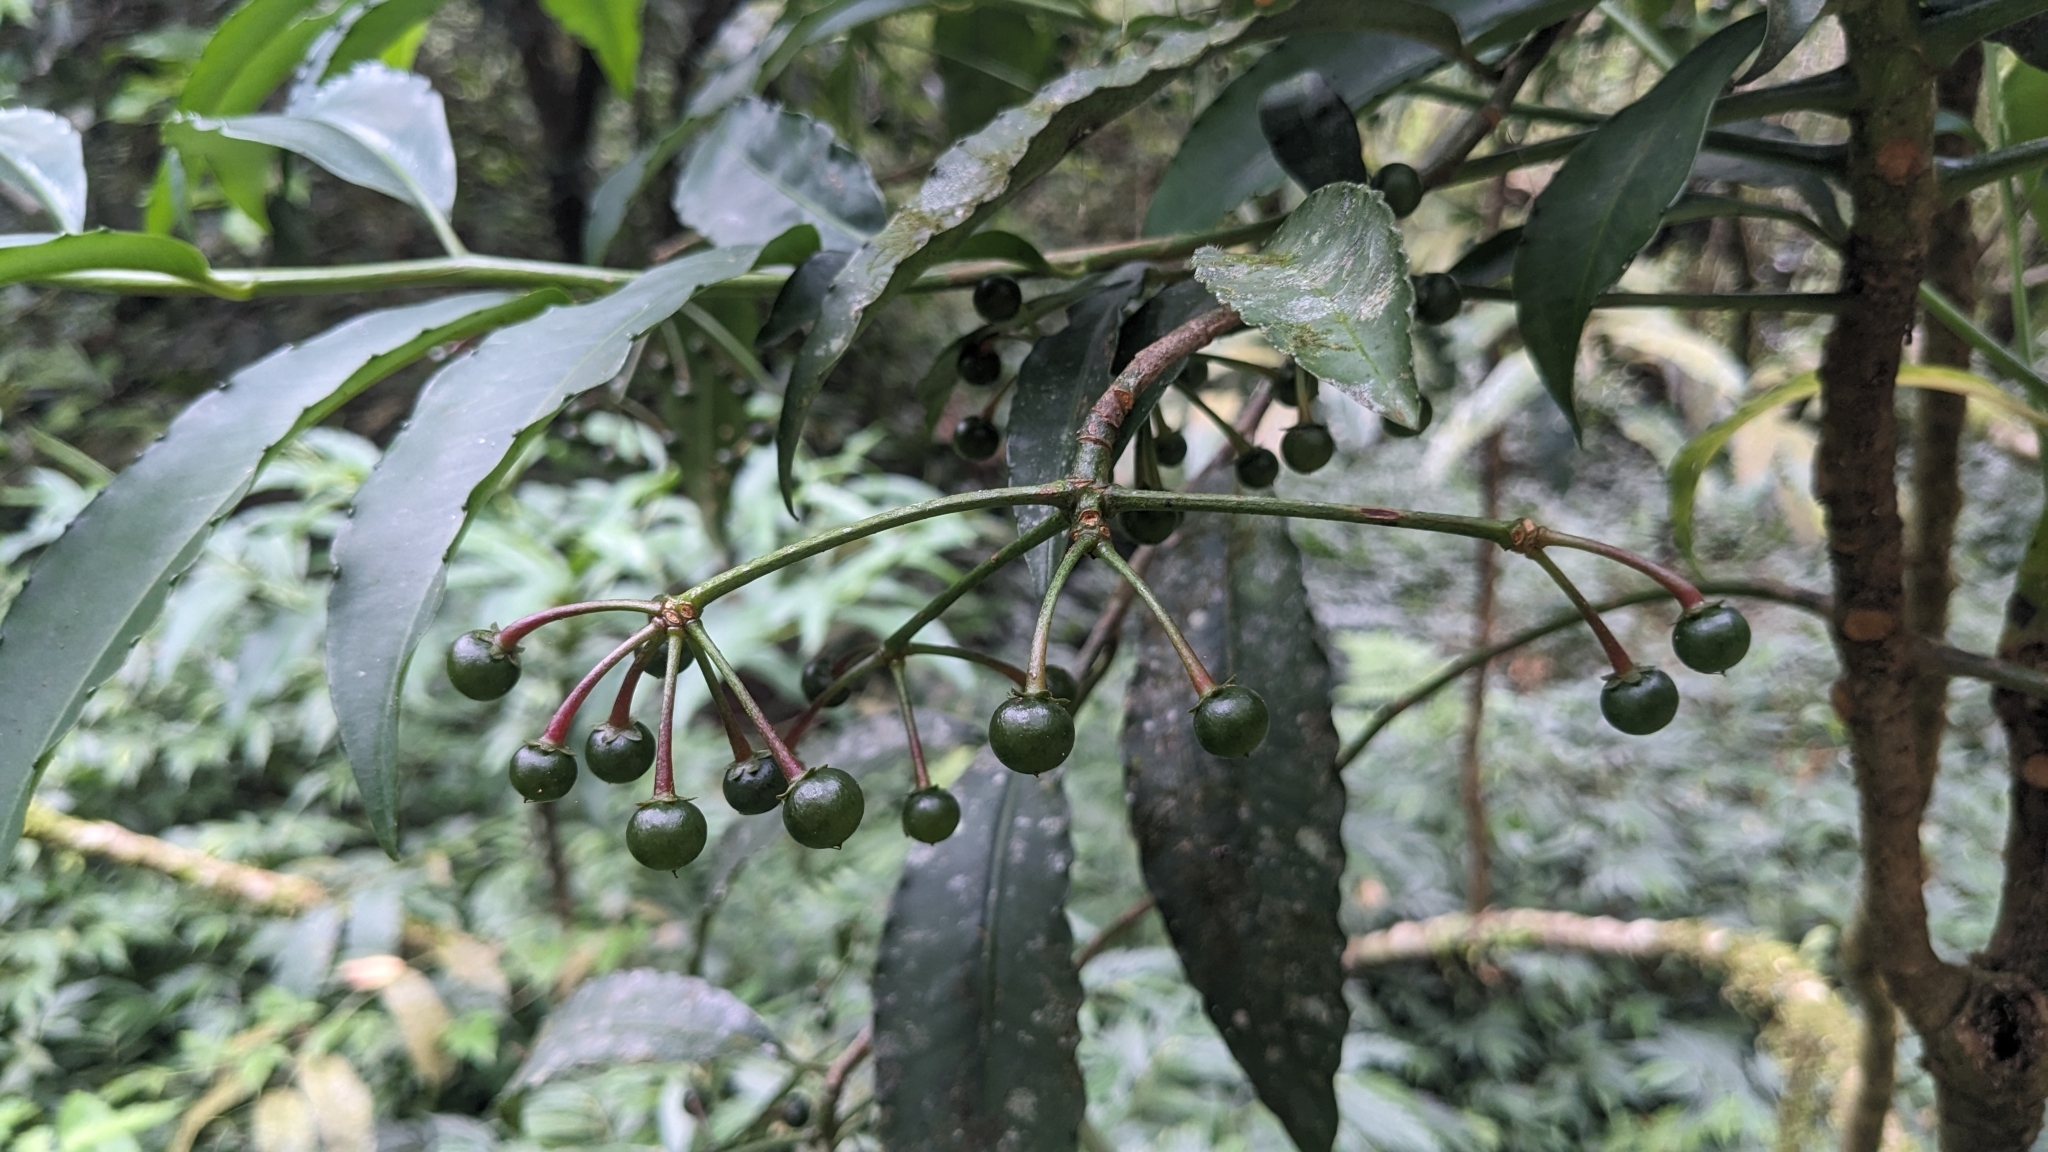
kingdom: Plantae
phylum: Tracheophyta
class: Magnoliopsida
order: Ericales
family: Primulaceae
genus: Ardisia
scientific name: Ardisia polysticta
